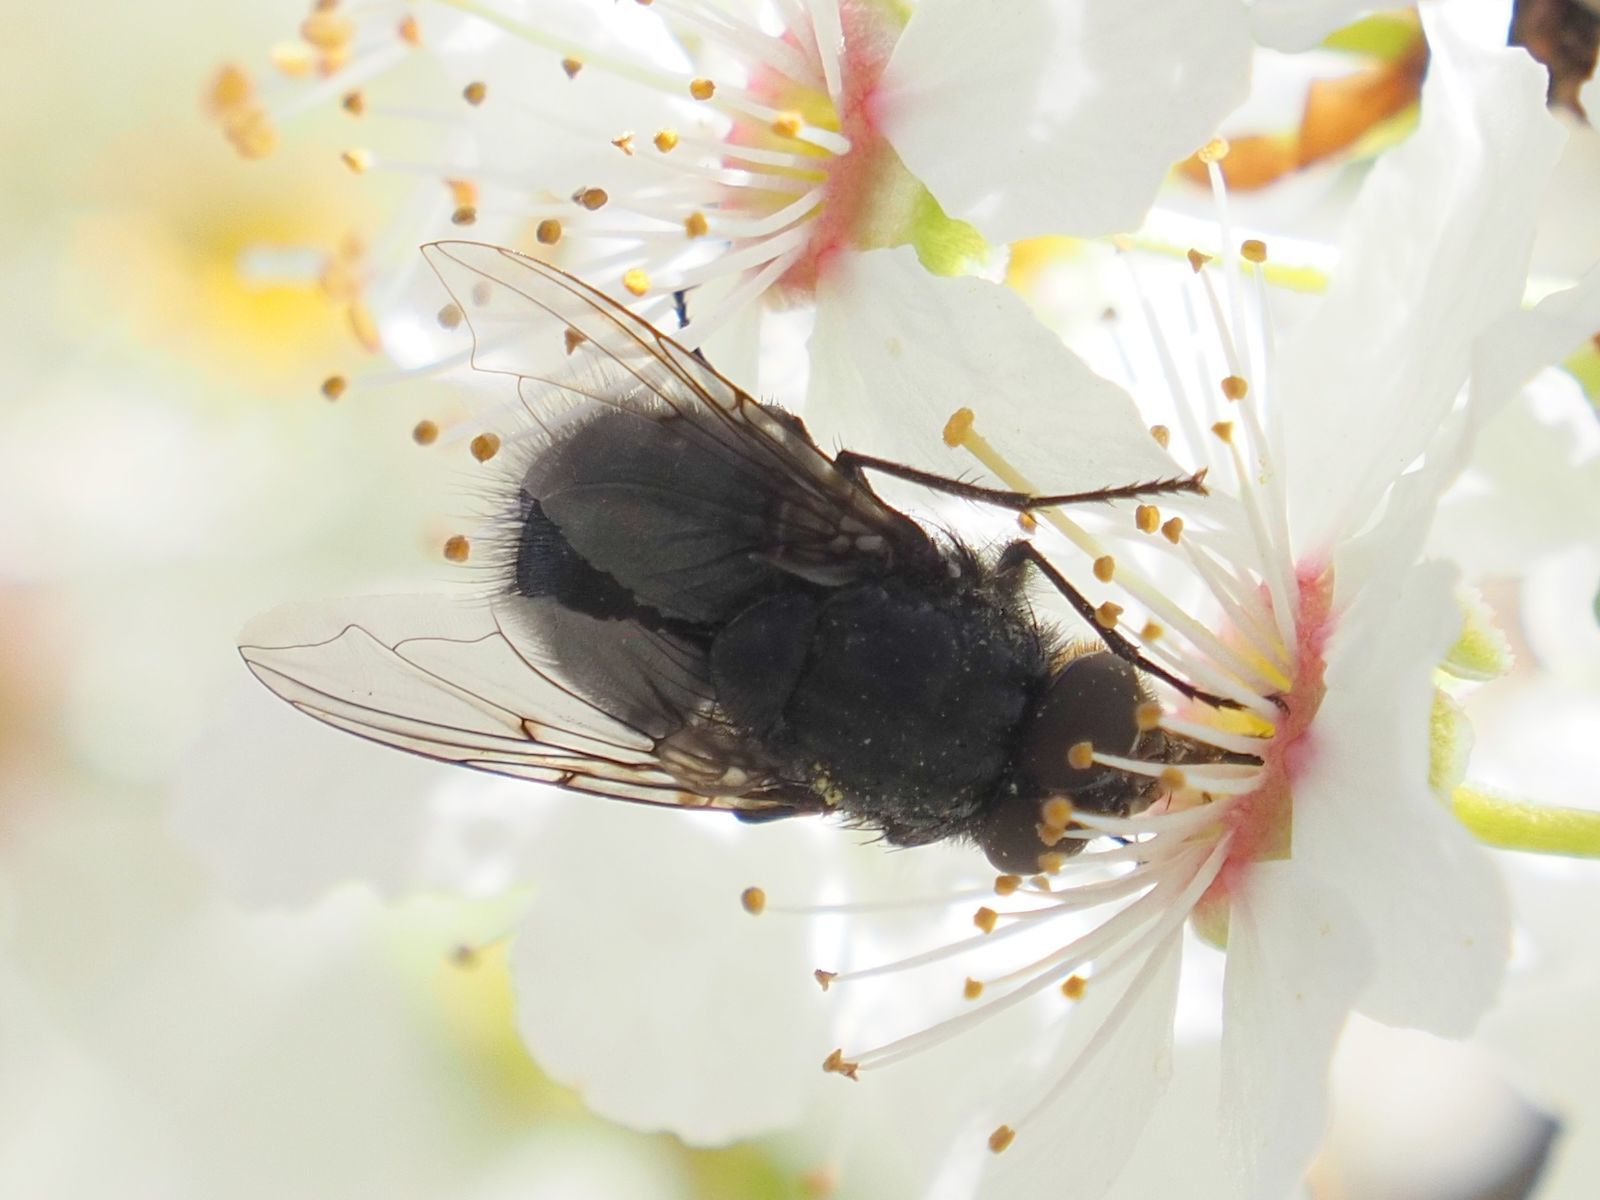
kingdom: Animalia
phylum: Arthropoda
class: Insecta
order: Diptera
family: Calliphoridae
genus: Calliphora
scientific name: Calliphora vomitoria
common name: Blue bottle fly
